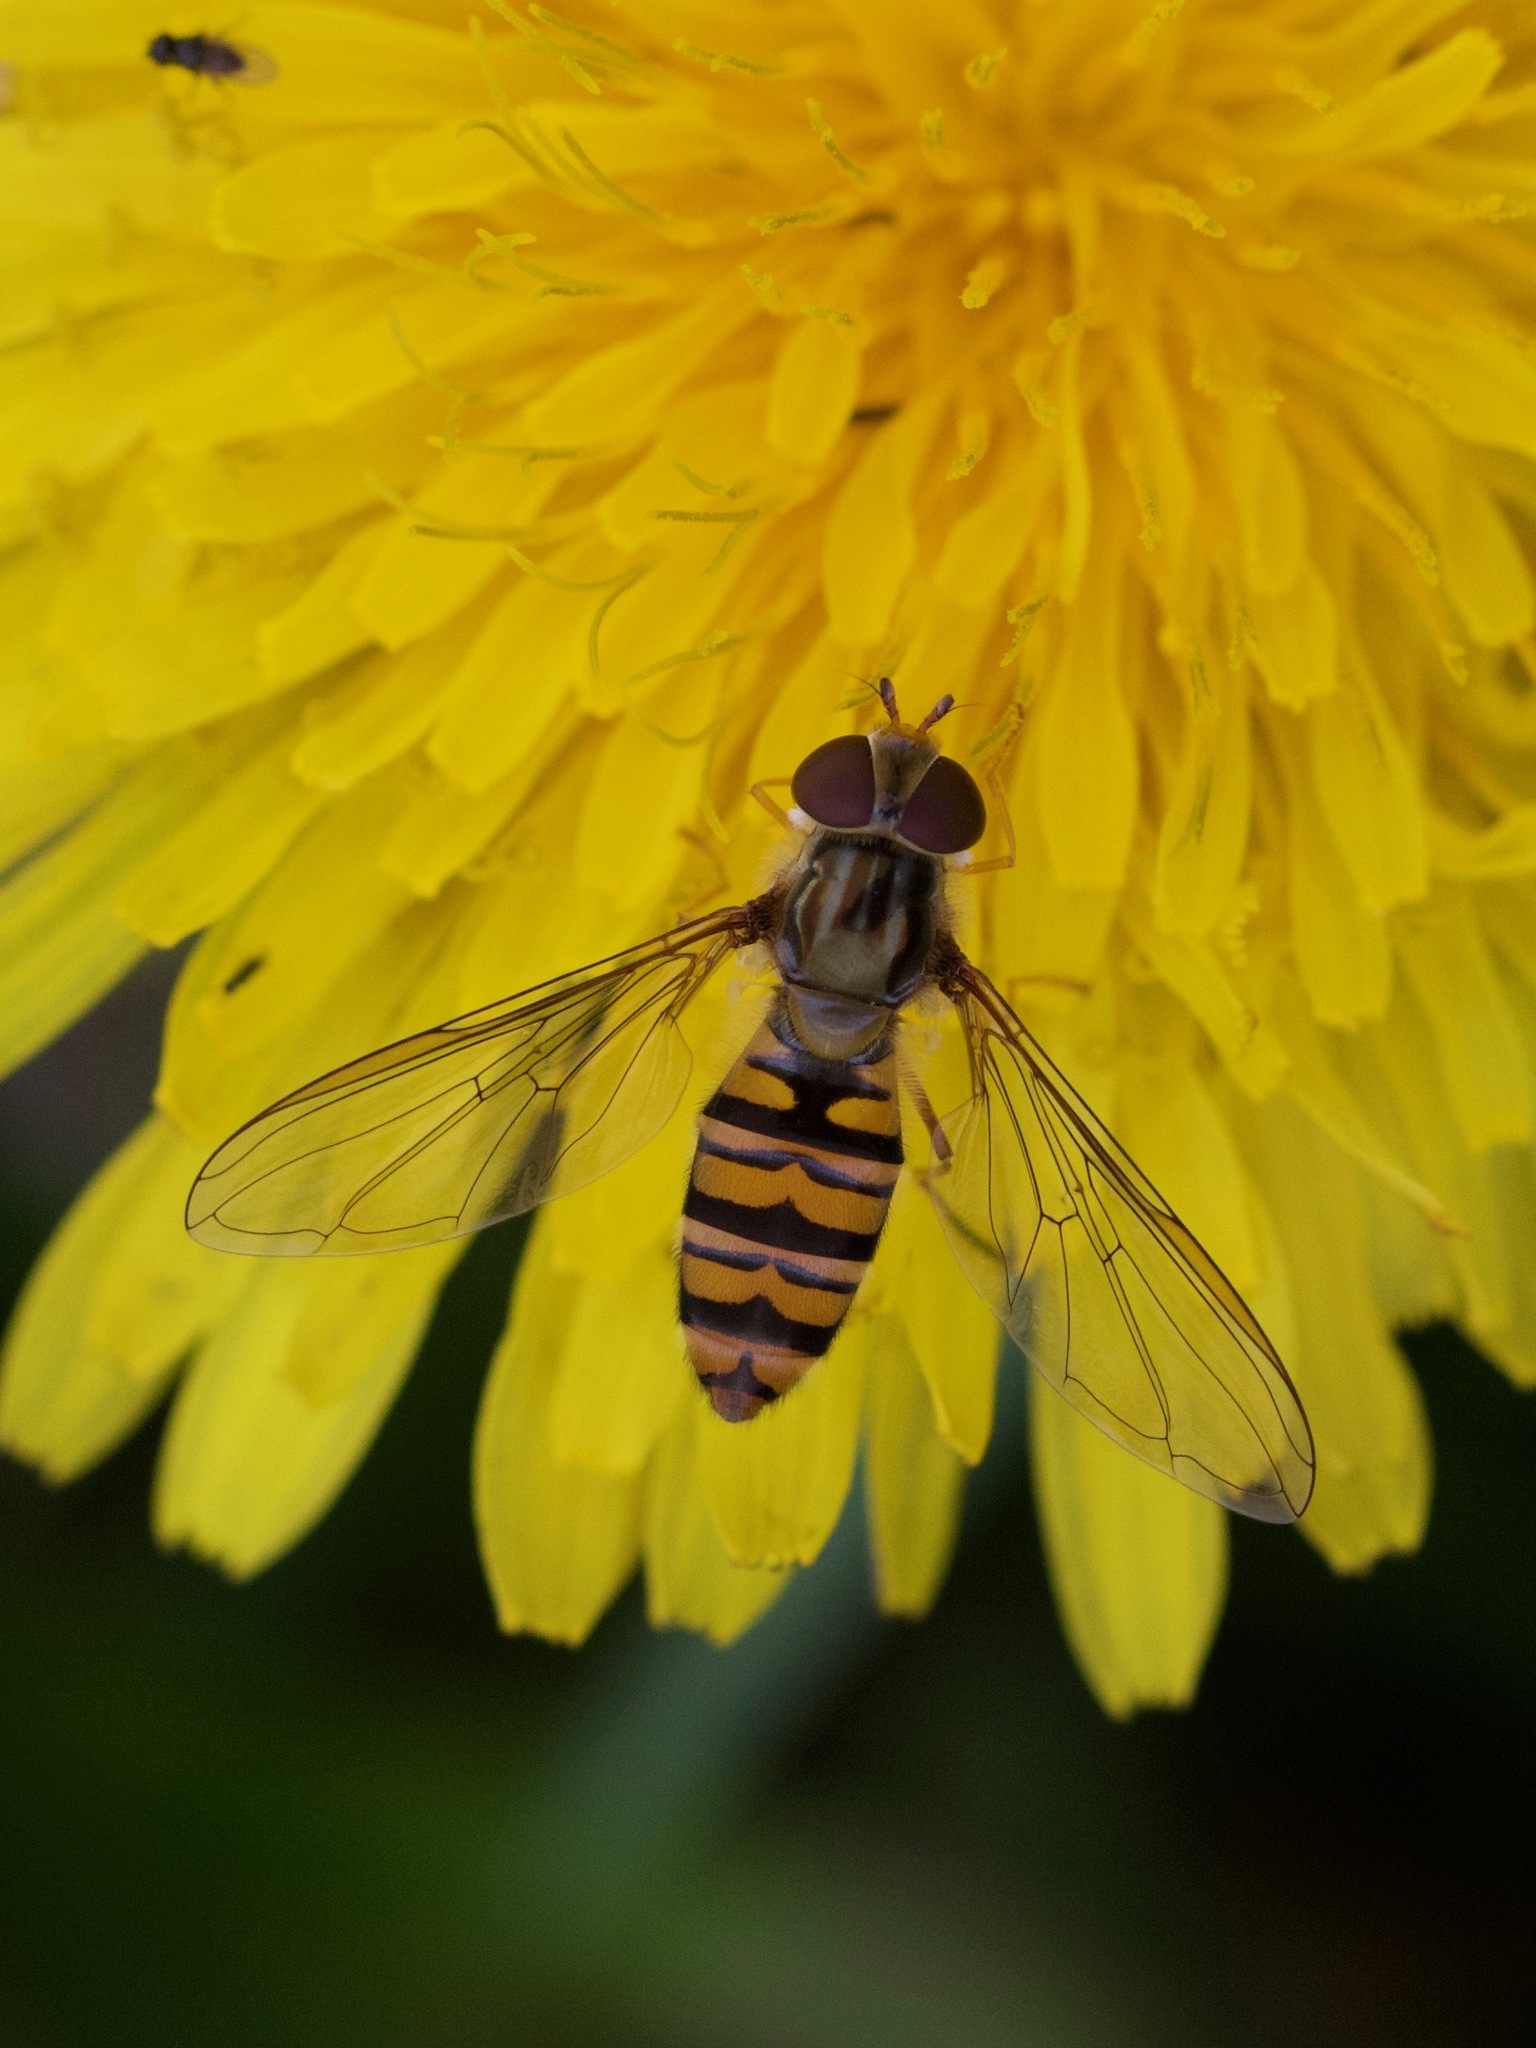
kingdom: Animalia
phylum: Arthropoda
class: Insecta
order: Diptera
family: Syrphidae
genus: Episyrphus
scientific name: Episyrphus balteatus
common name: Marmalade hoverfly
